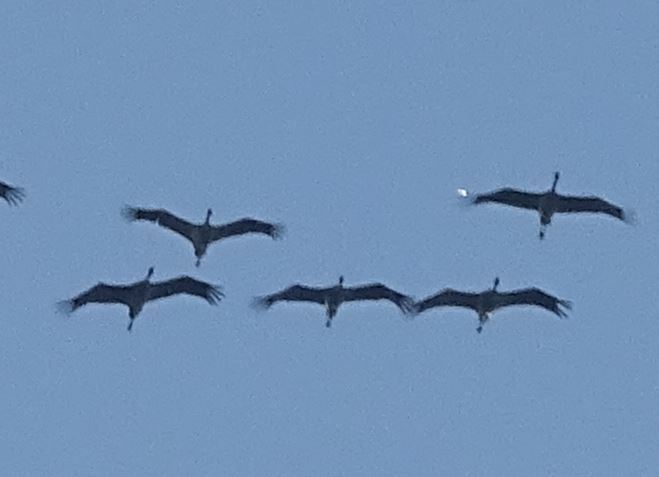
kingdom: Animalia
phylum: Chordata
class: Aves
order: Gruiformes
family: Gruidae
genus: Grus
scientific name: Grus grus
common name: Common crane
